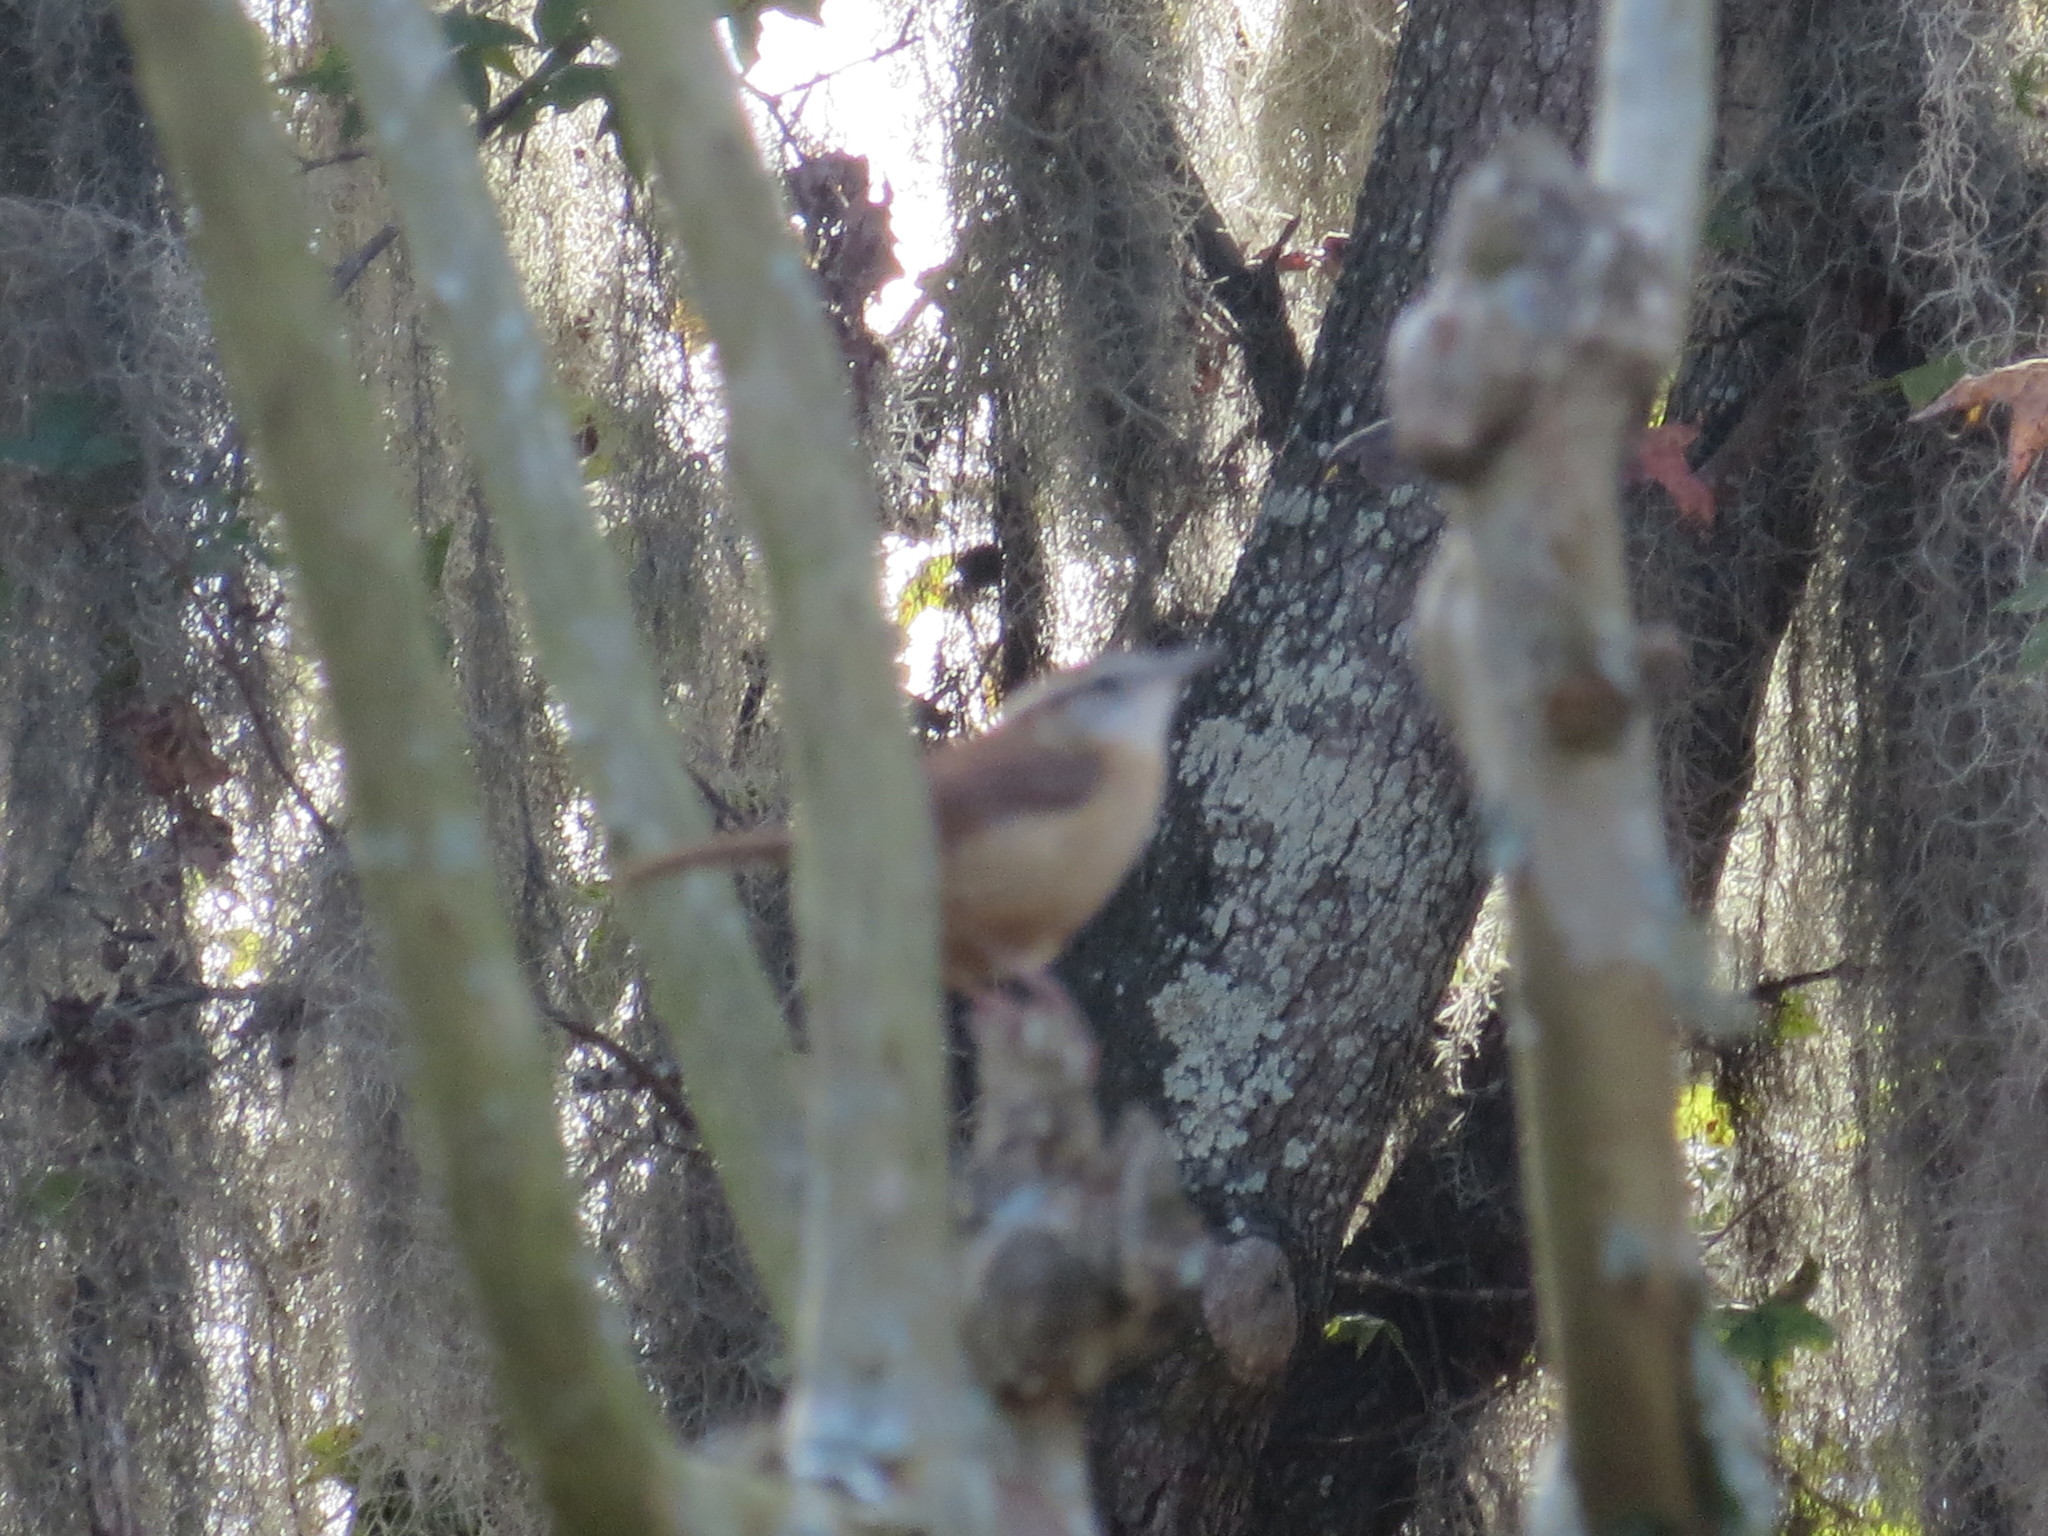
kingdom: Animalia
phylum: Chordata
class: Aves
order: Passeriformes
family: Troglodytidae
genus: Thryothorus
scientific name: Thryothorus ludovicianus
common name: Carolina wren
